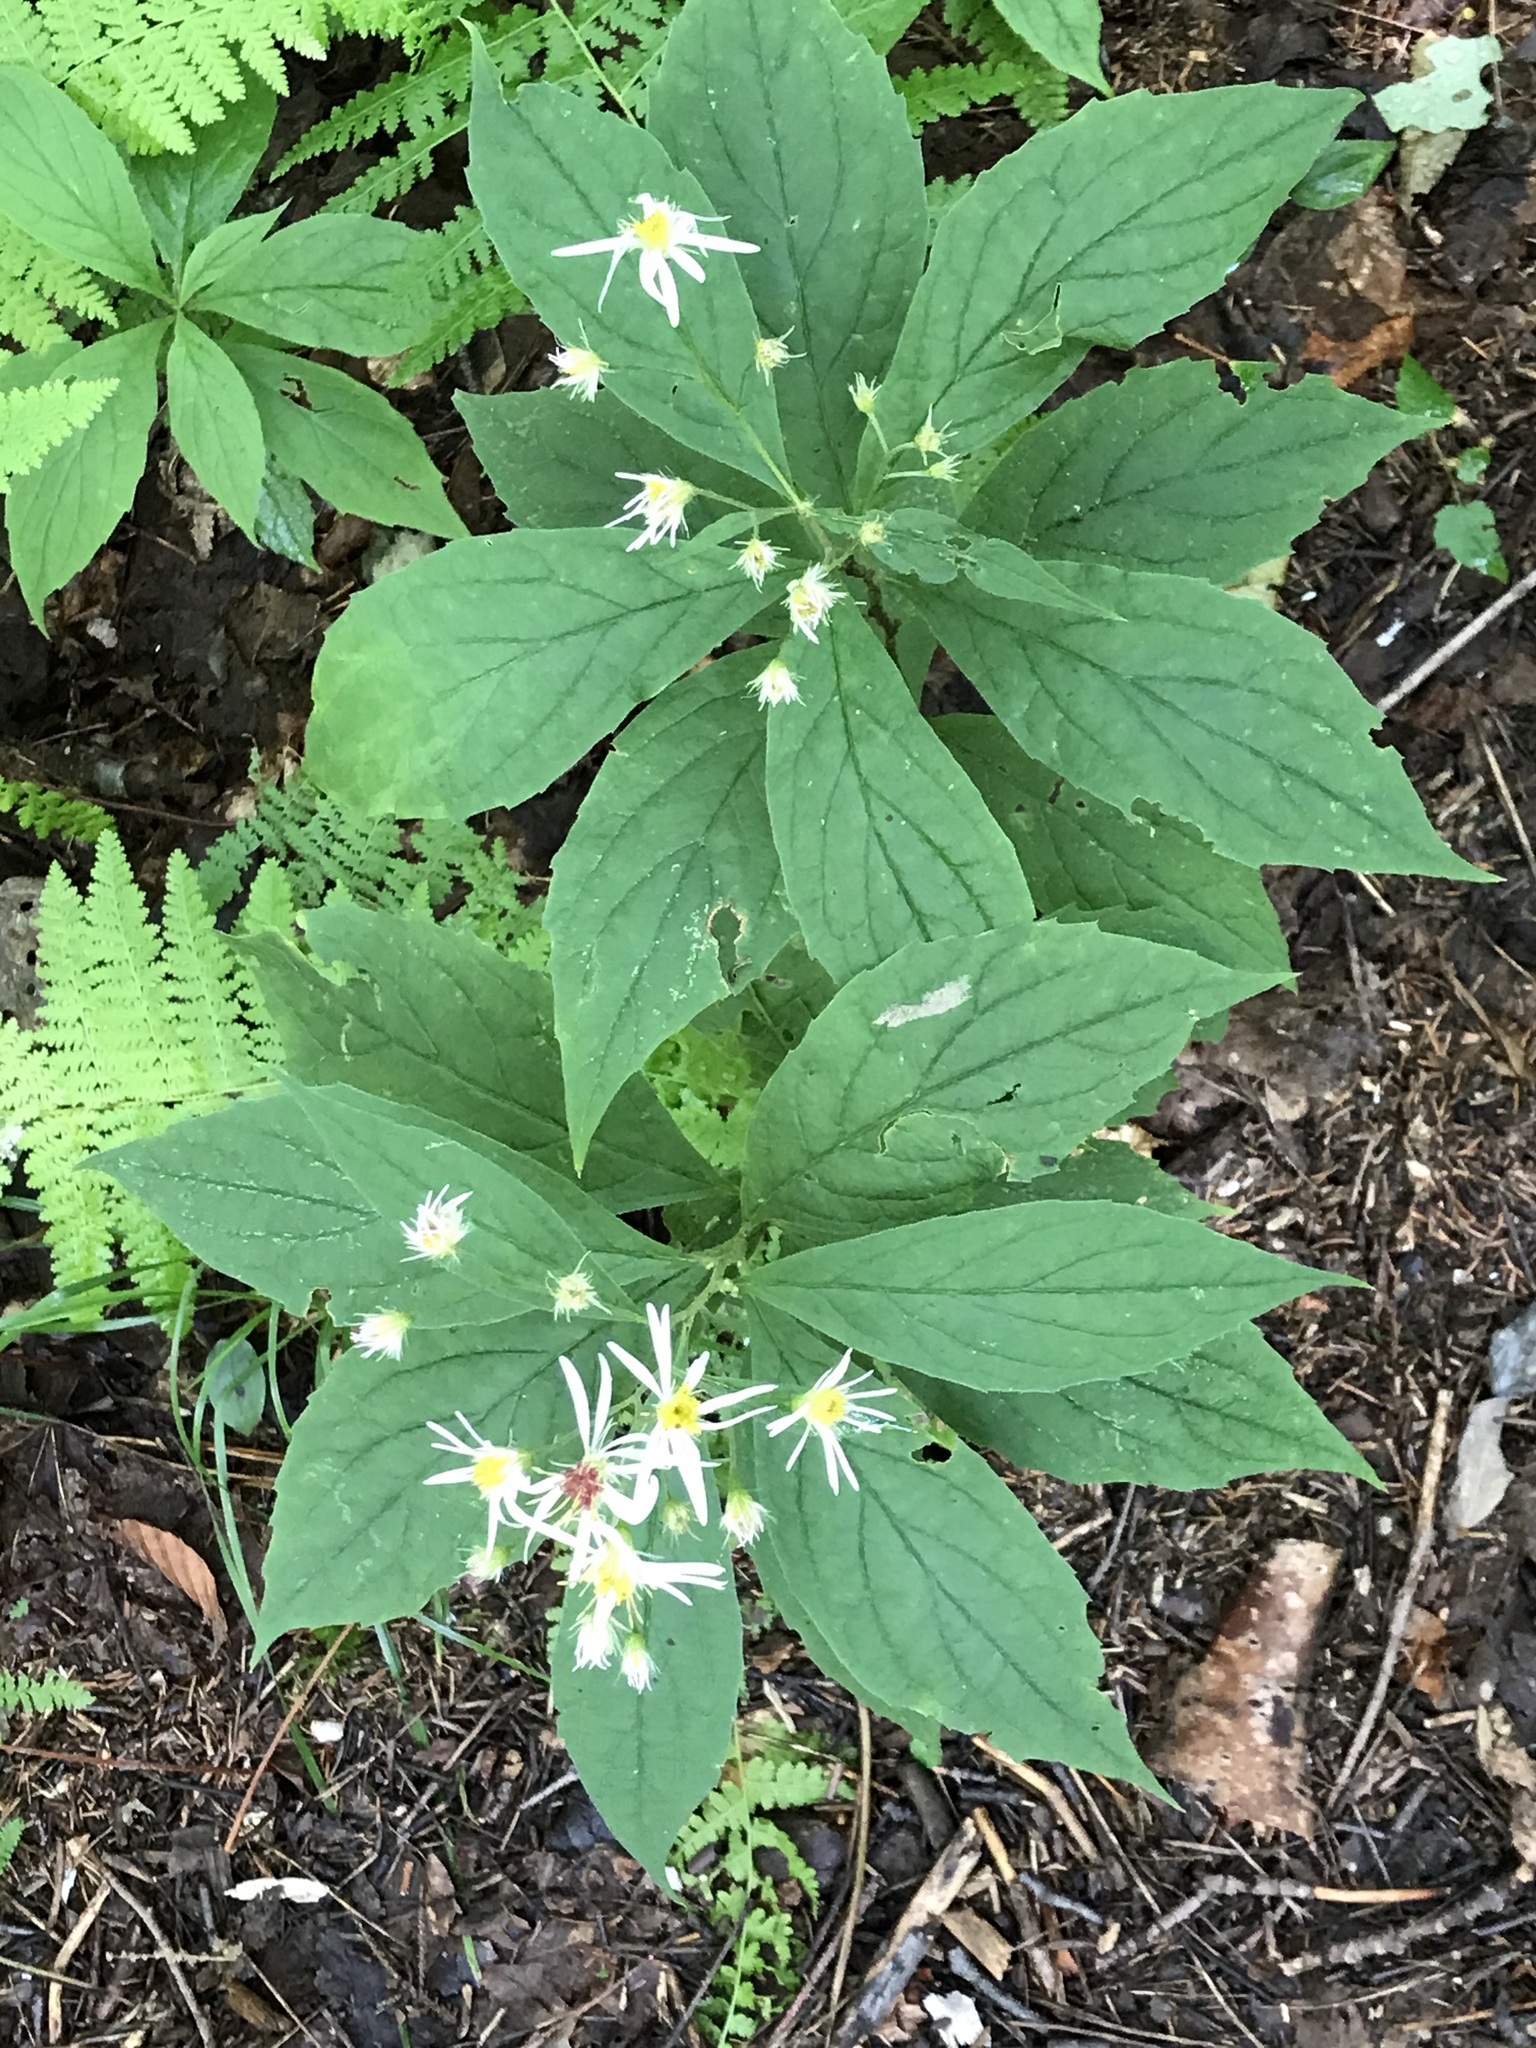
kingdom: Plantae
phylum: Tracheophyta
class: Magnoliopsida
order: Asterales
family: Asteraceae
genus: Oclemena
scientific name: Oclemena acuminata
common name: Mountain aster
